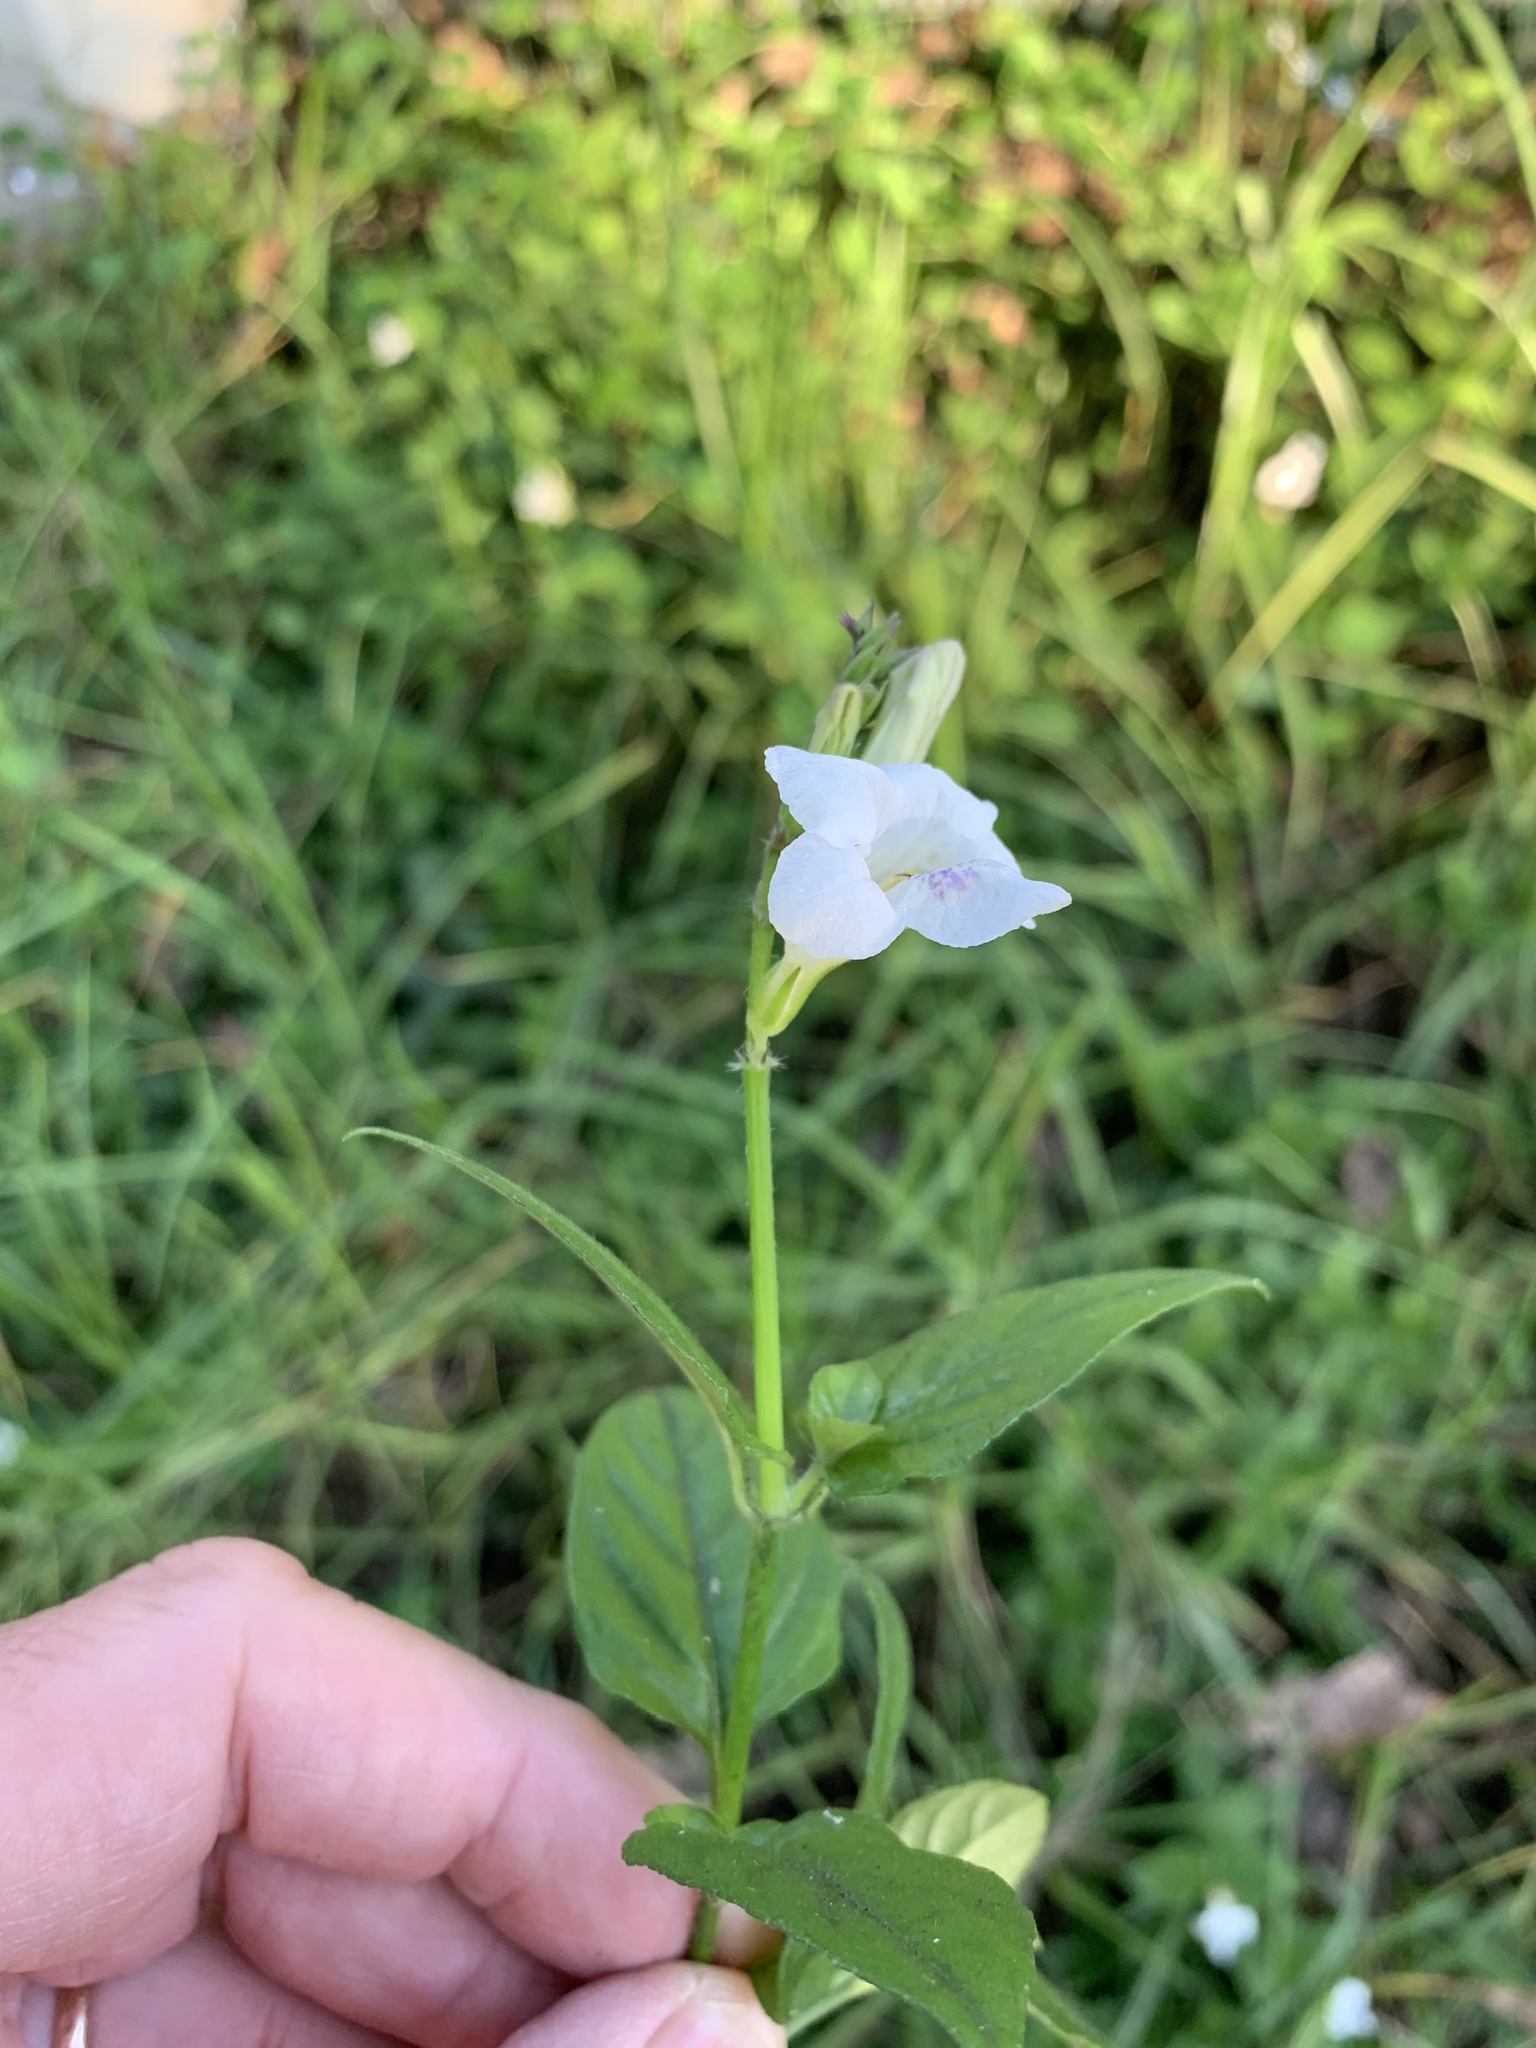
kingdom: Plantae
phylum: Tracheophyta
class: Magnoliopsida
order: Lamiales
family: Acanthaceae
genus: Asystasia
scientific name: Asystasia intrusa
